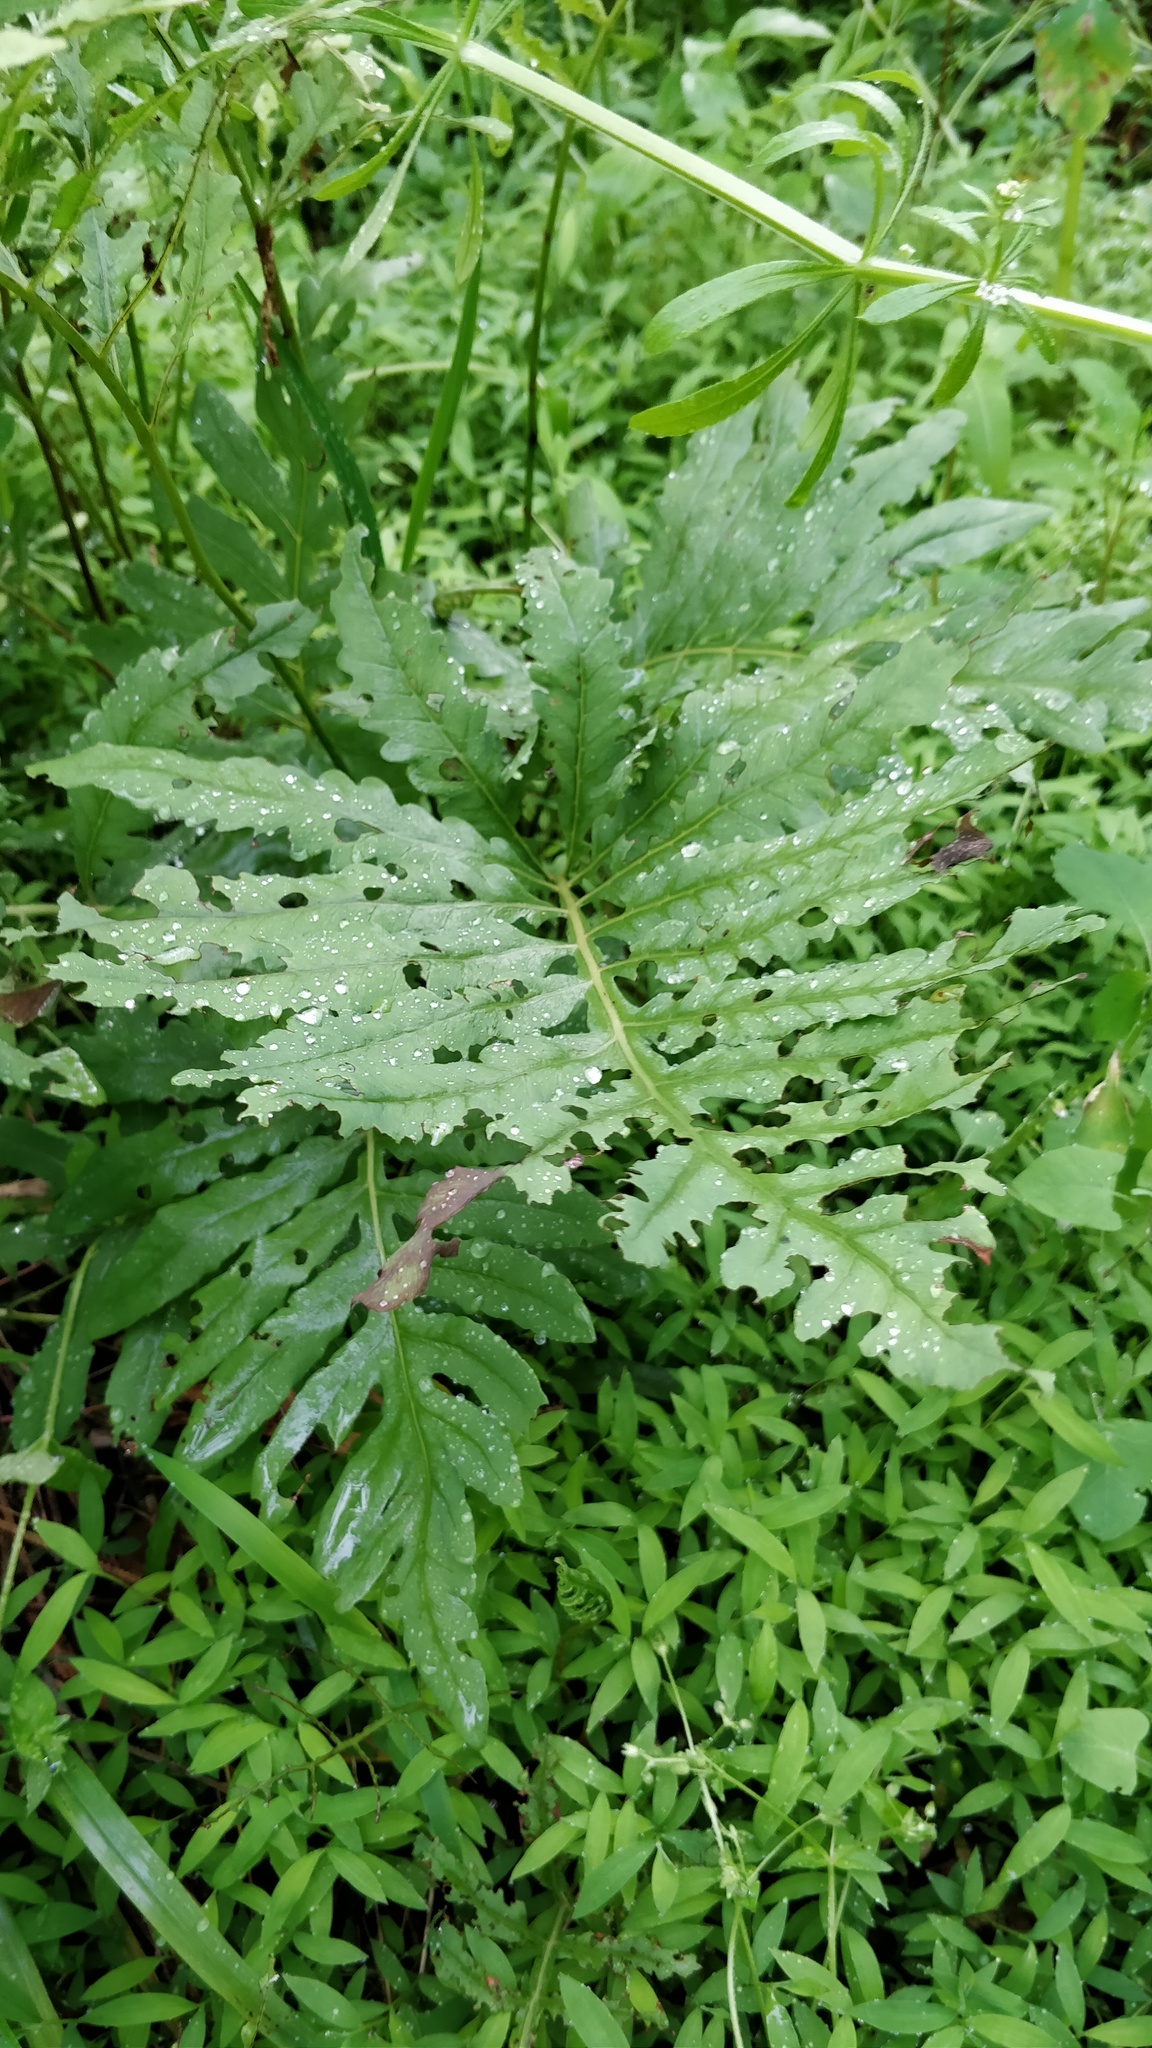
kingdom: Plantae
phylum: Tracheophyta
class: Polypodiopsida
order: Polypodiales
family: Onocleaceae
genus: Onoclea
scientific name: Onoclea sensibilis
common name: Sensitive fern
